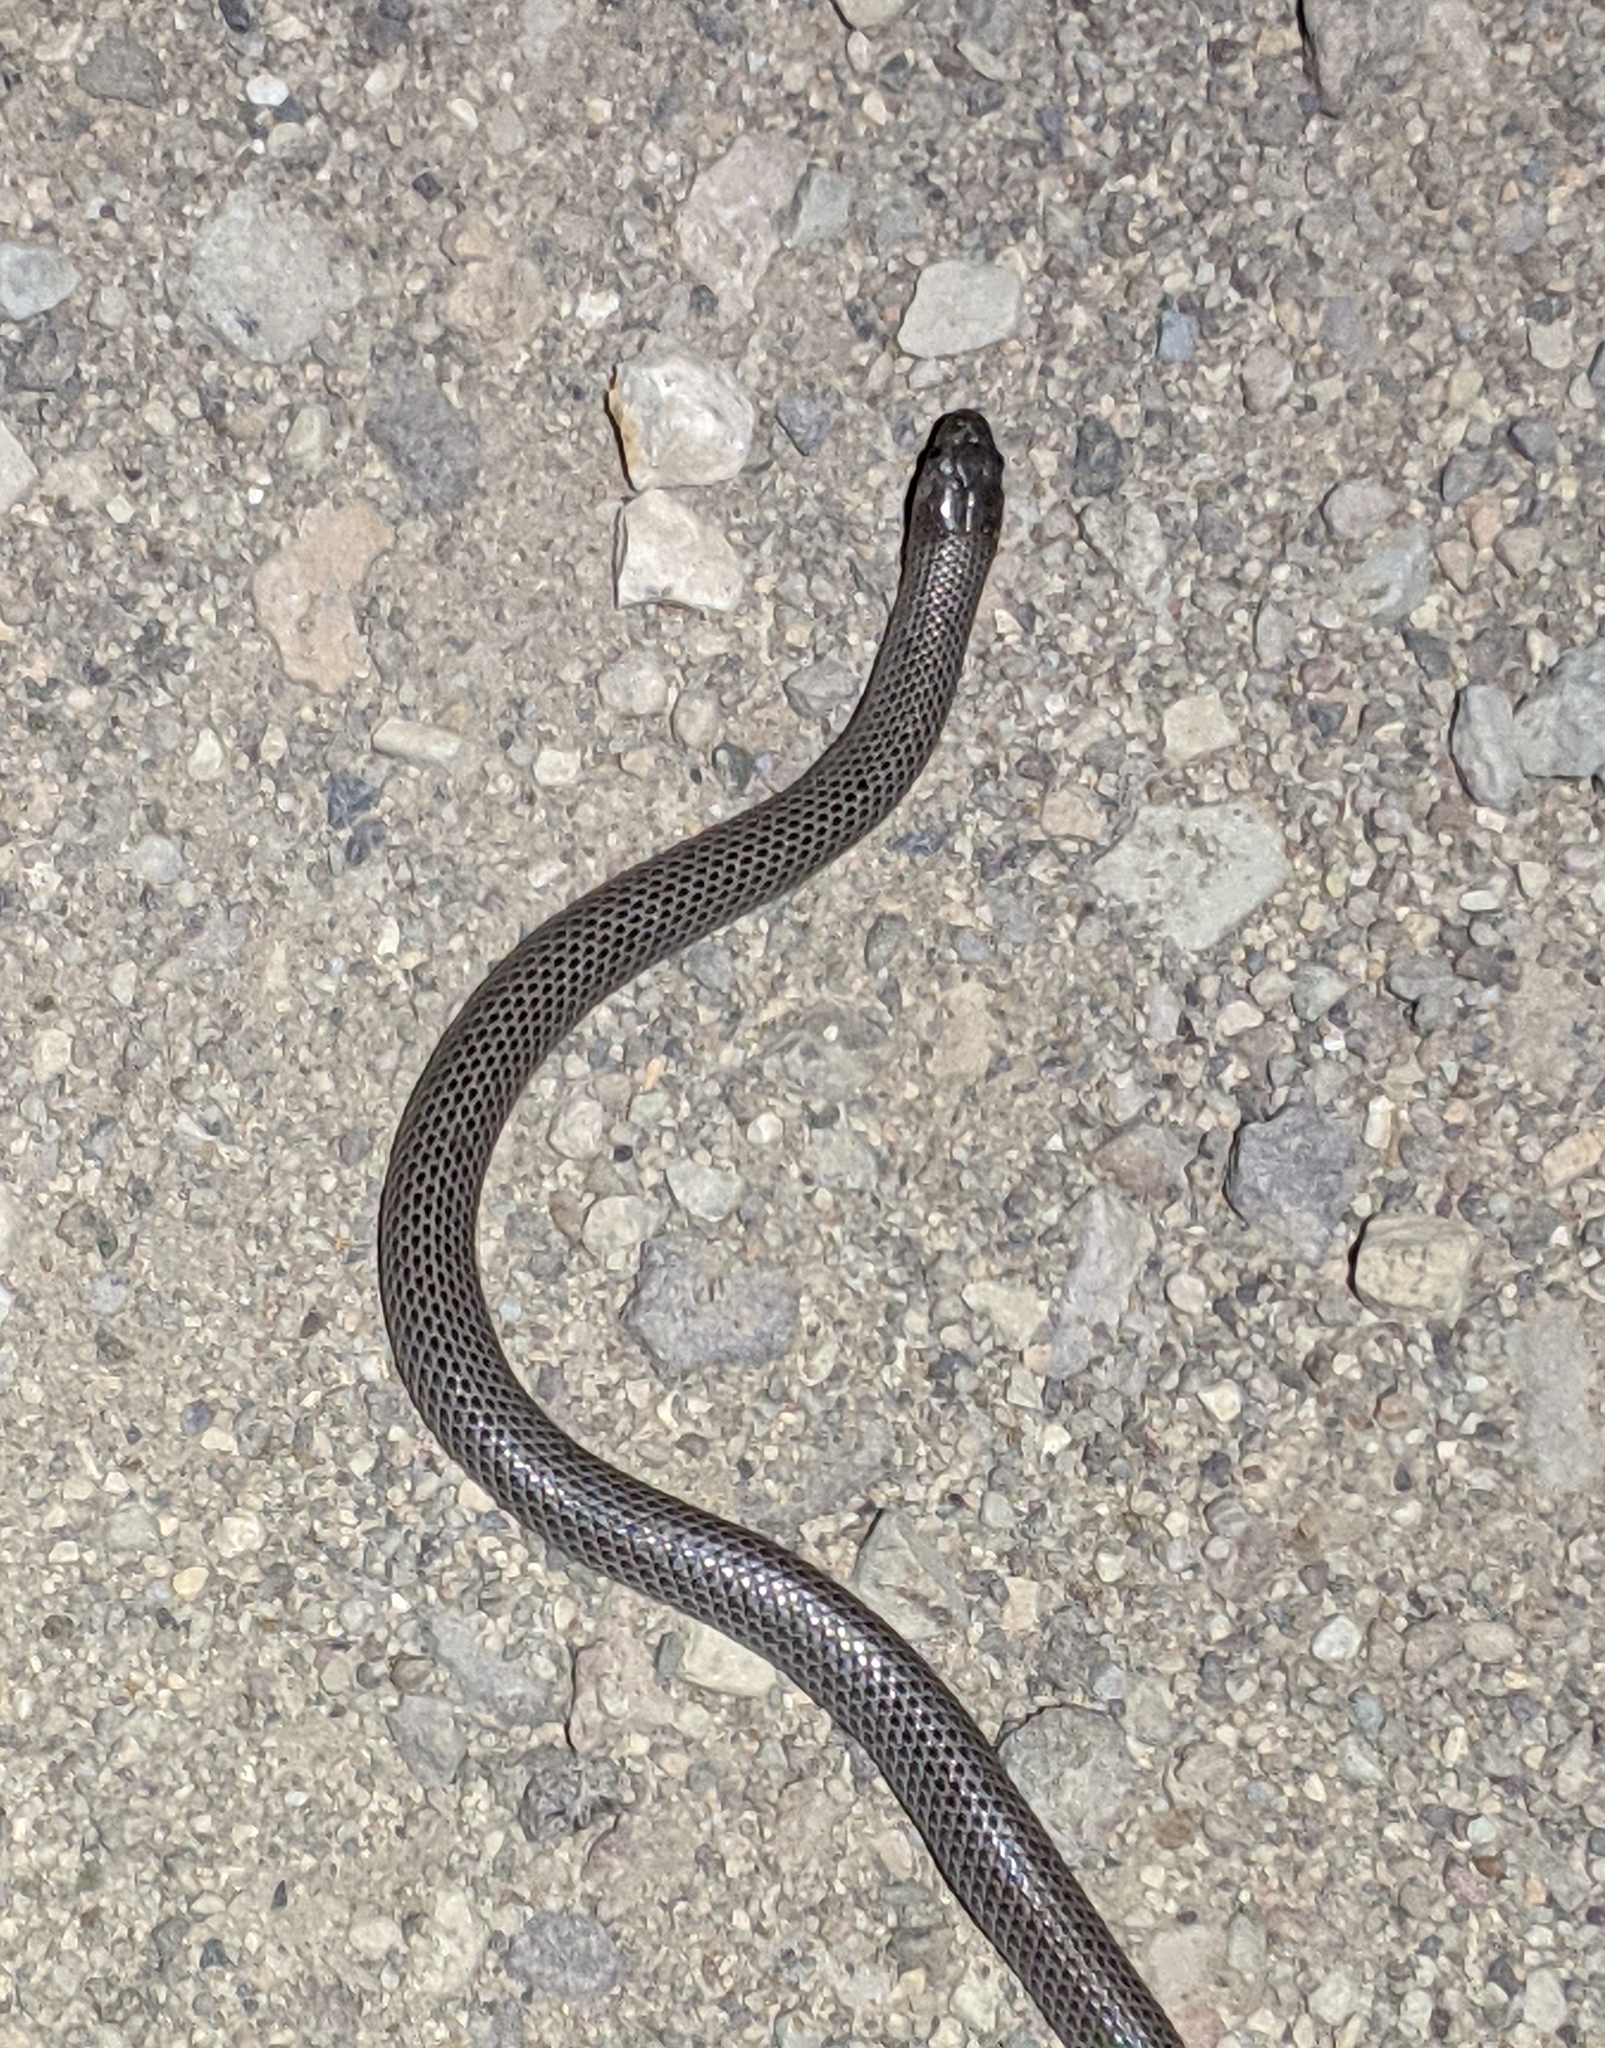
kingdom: Animalia
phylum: Chordata
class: Squamata
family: Colubridae
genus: Sonora
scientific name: Sonora episcopa
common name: Ground snake
